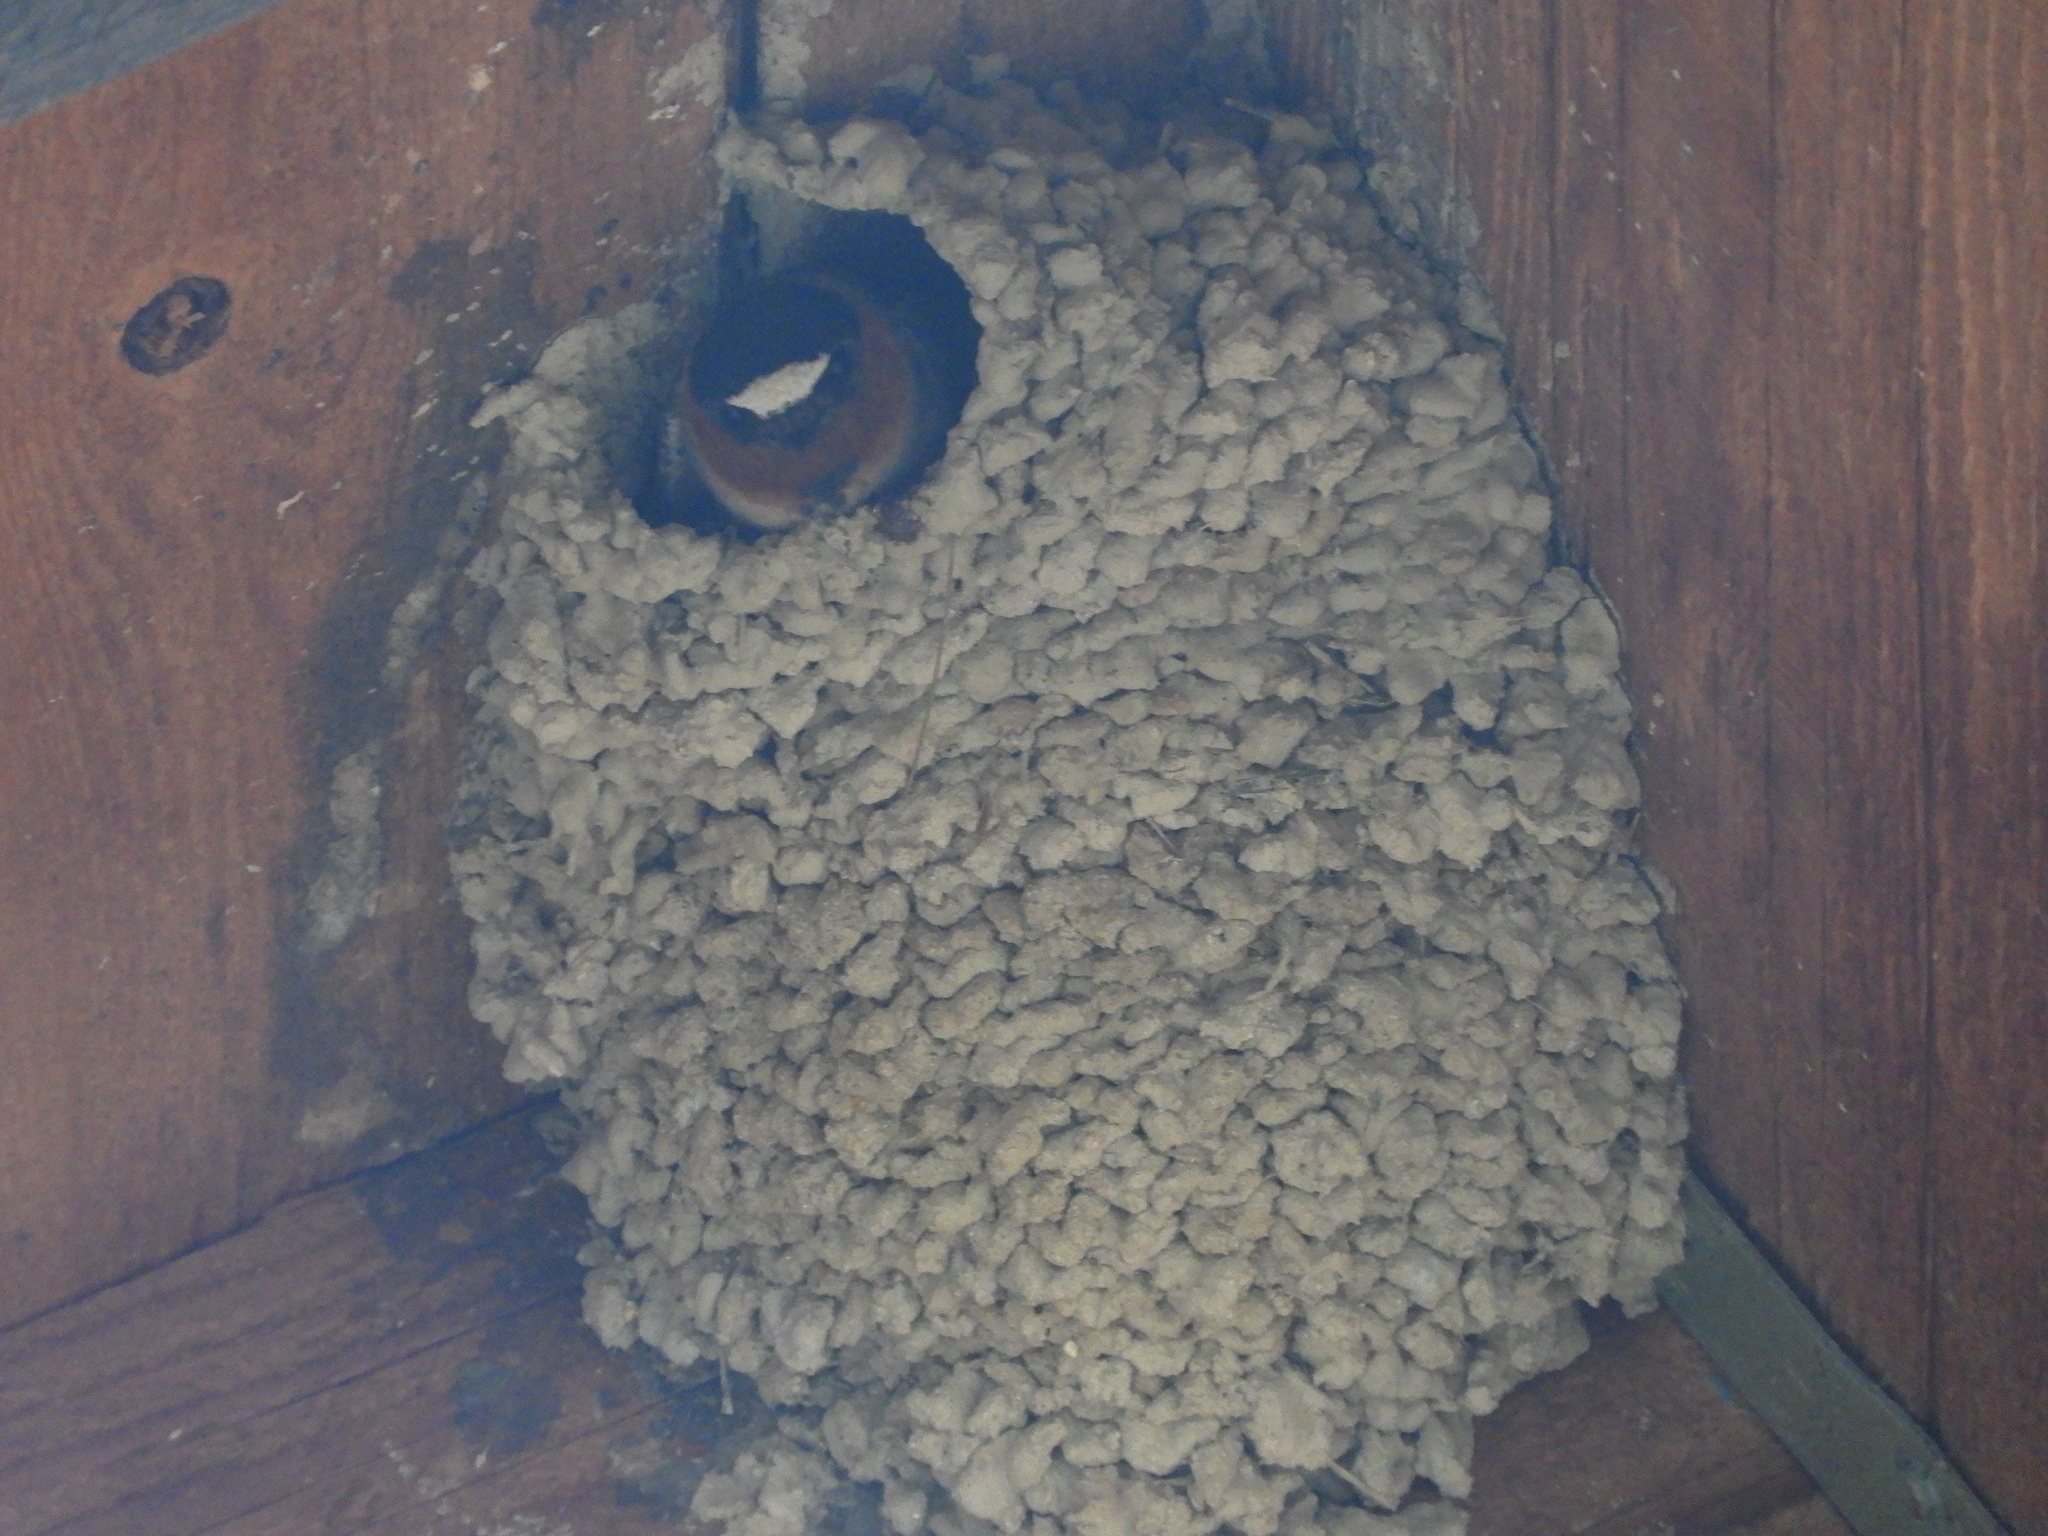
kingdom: Animalia
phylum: Chordata
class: Aves
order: Passeriformes
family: Hirundinidae
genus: Petrochelidon
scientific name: Petrochelidon pyrrhonota
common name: American cliff swallow
